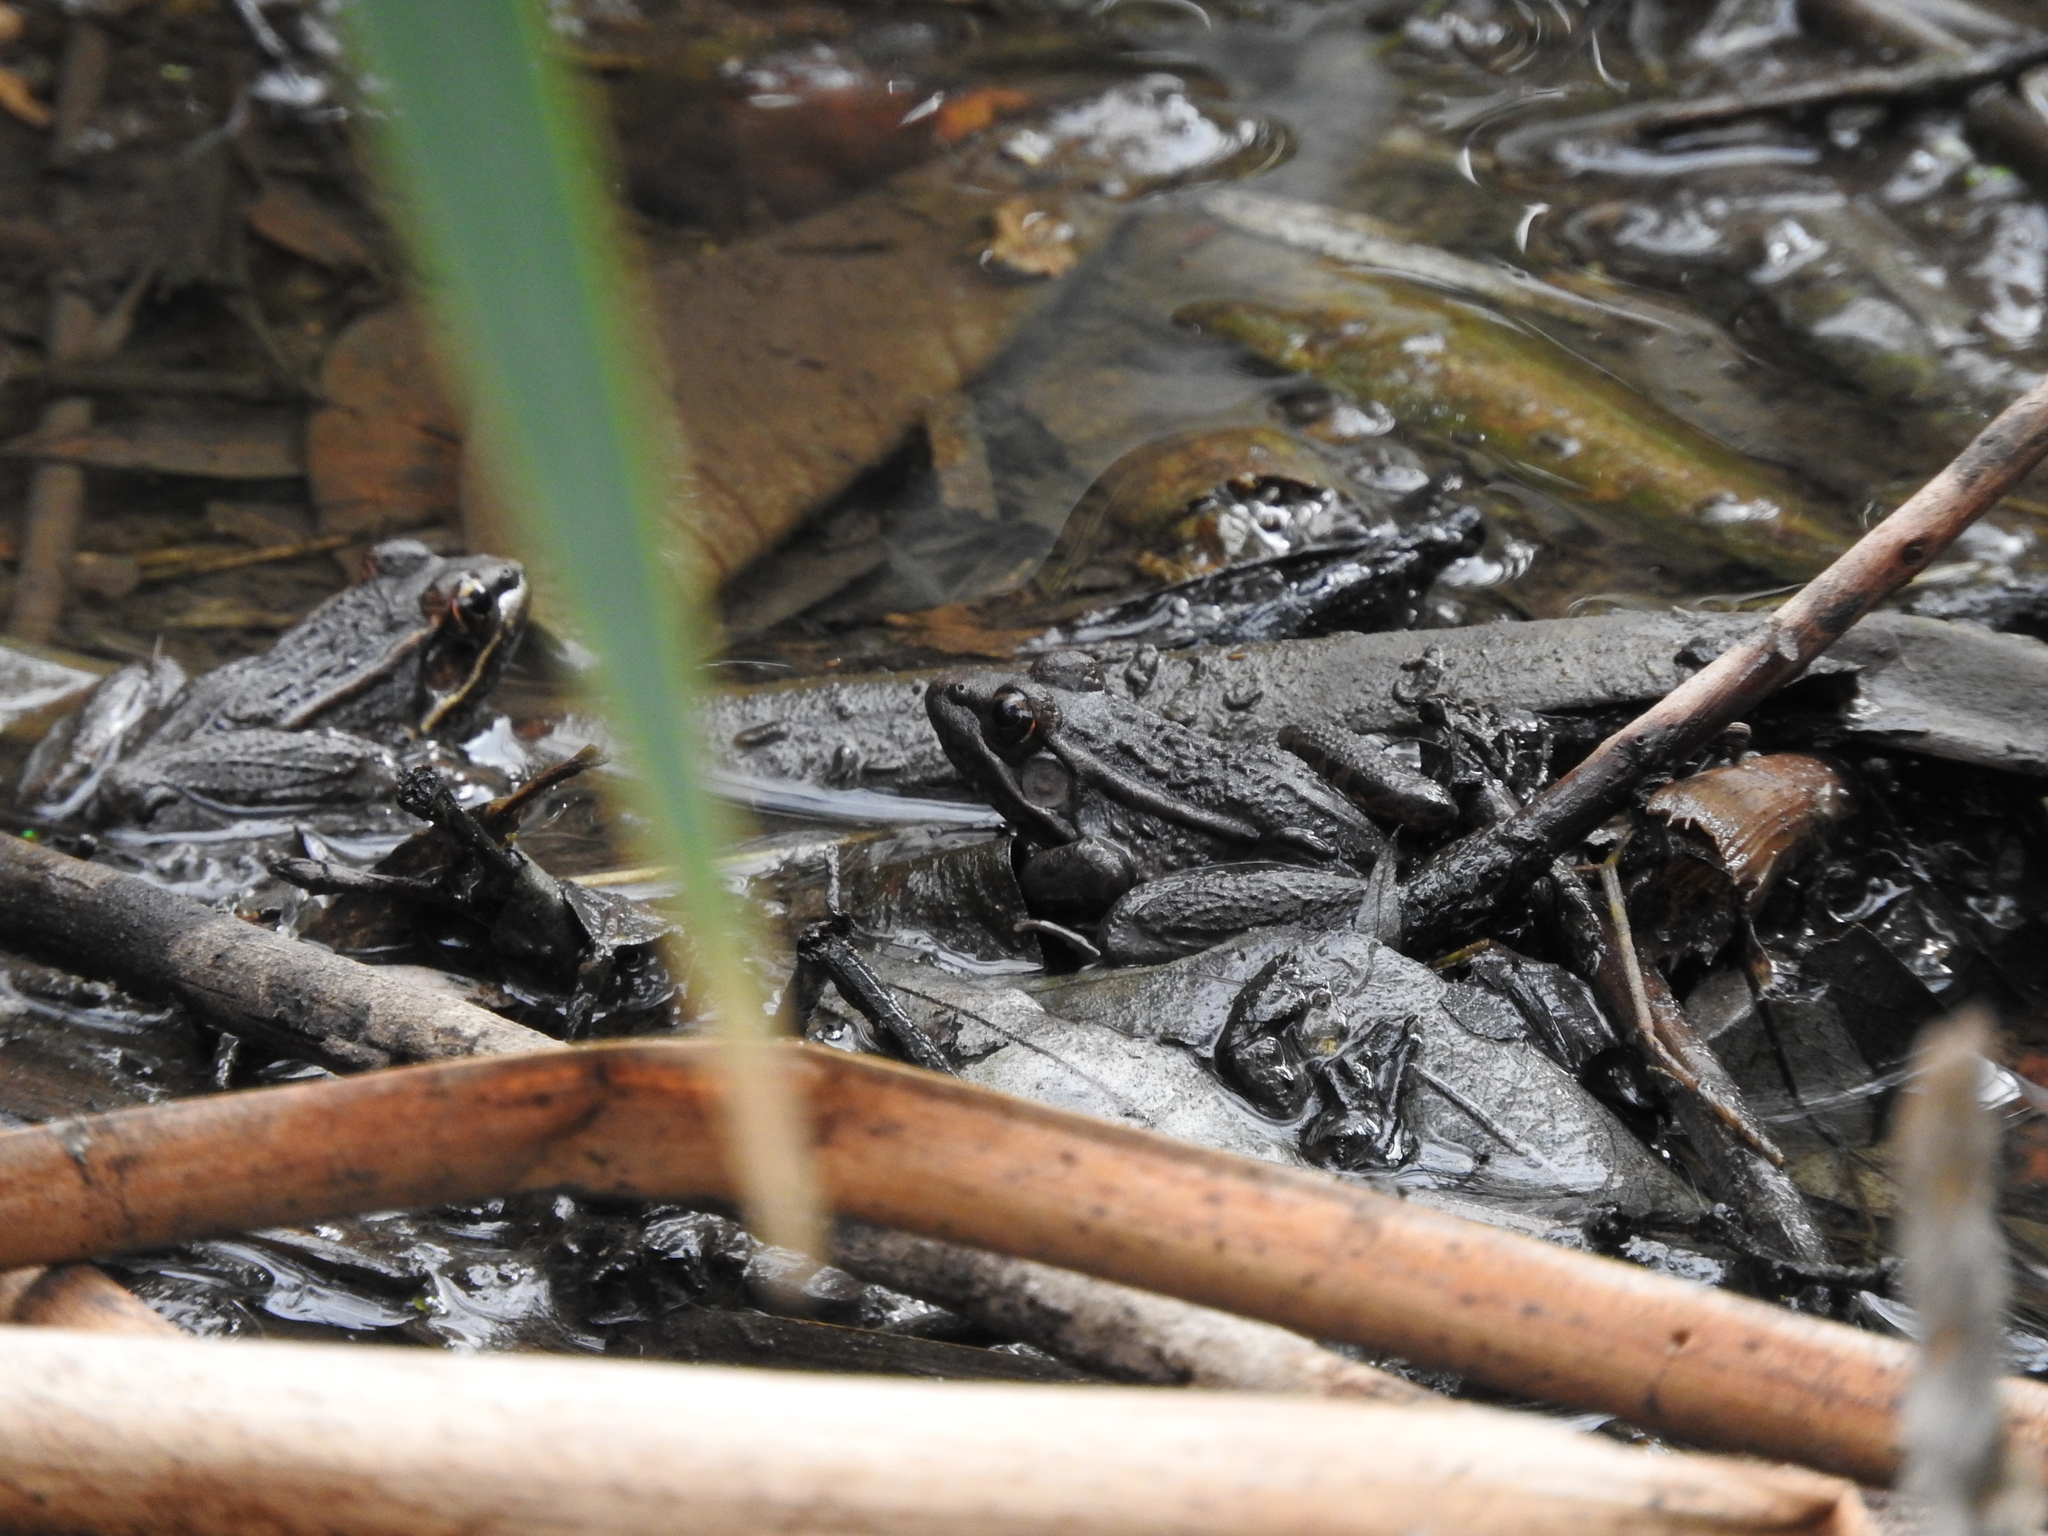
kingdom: Animalia
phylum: Chordata
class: Amphibia
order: Anura
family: Ranidae
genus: Lithobates
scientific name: Lithobates neovolcanicus
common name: Transverse volcanic leopard frog
